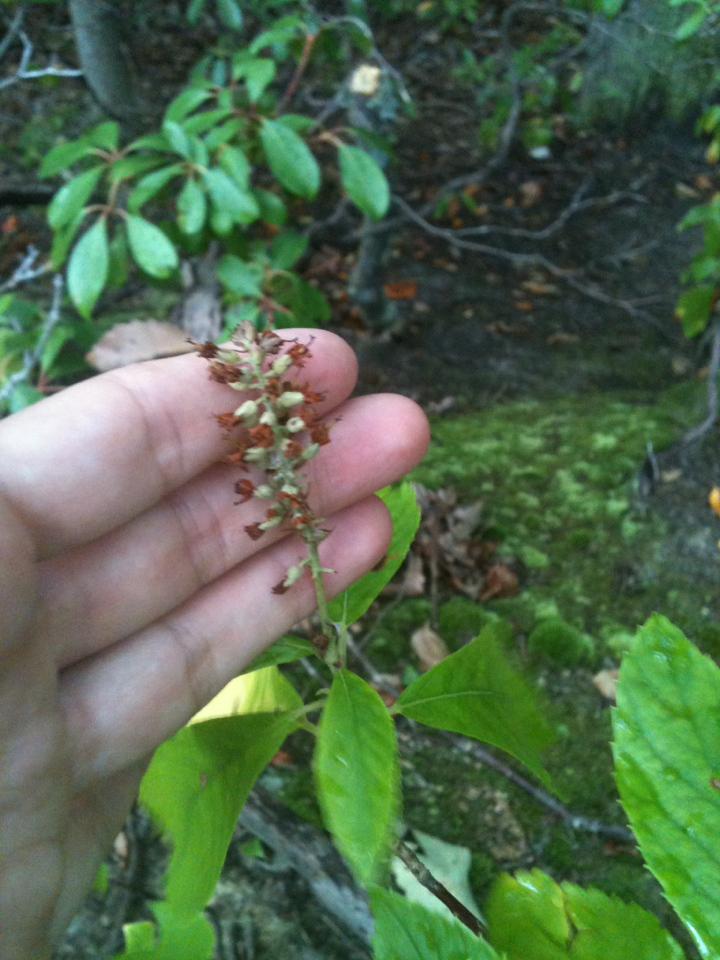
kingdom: Plantae
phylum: Tracheophyta
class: Magnoliopsida
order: Ericales
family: Clethraceae
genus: Clethra
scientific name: Clethra alnifolia
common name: Sweet pepperbush
